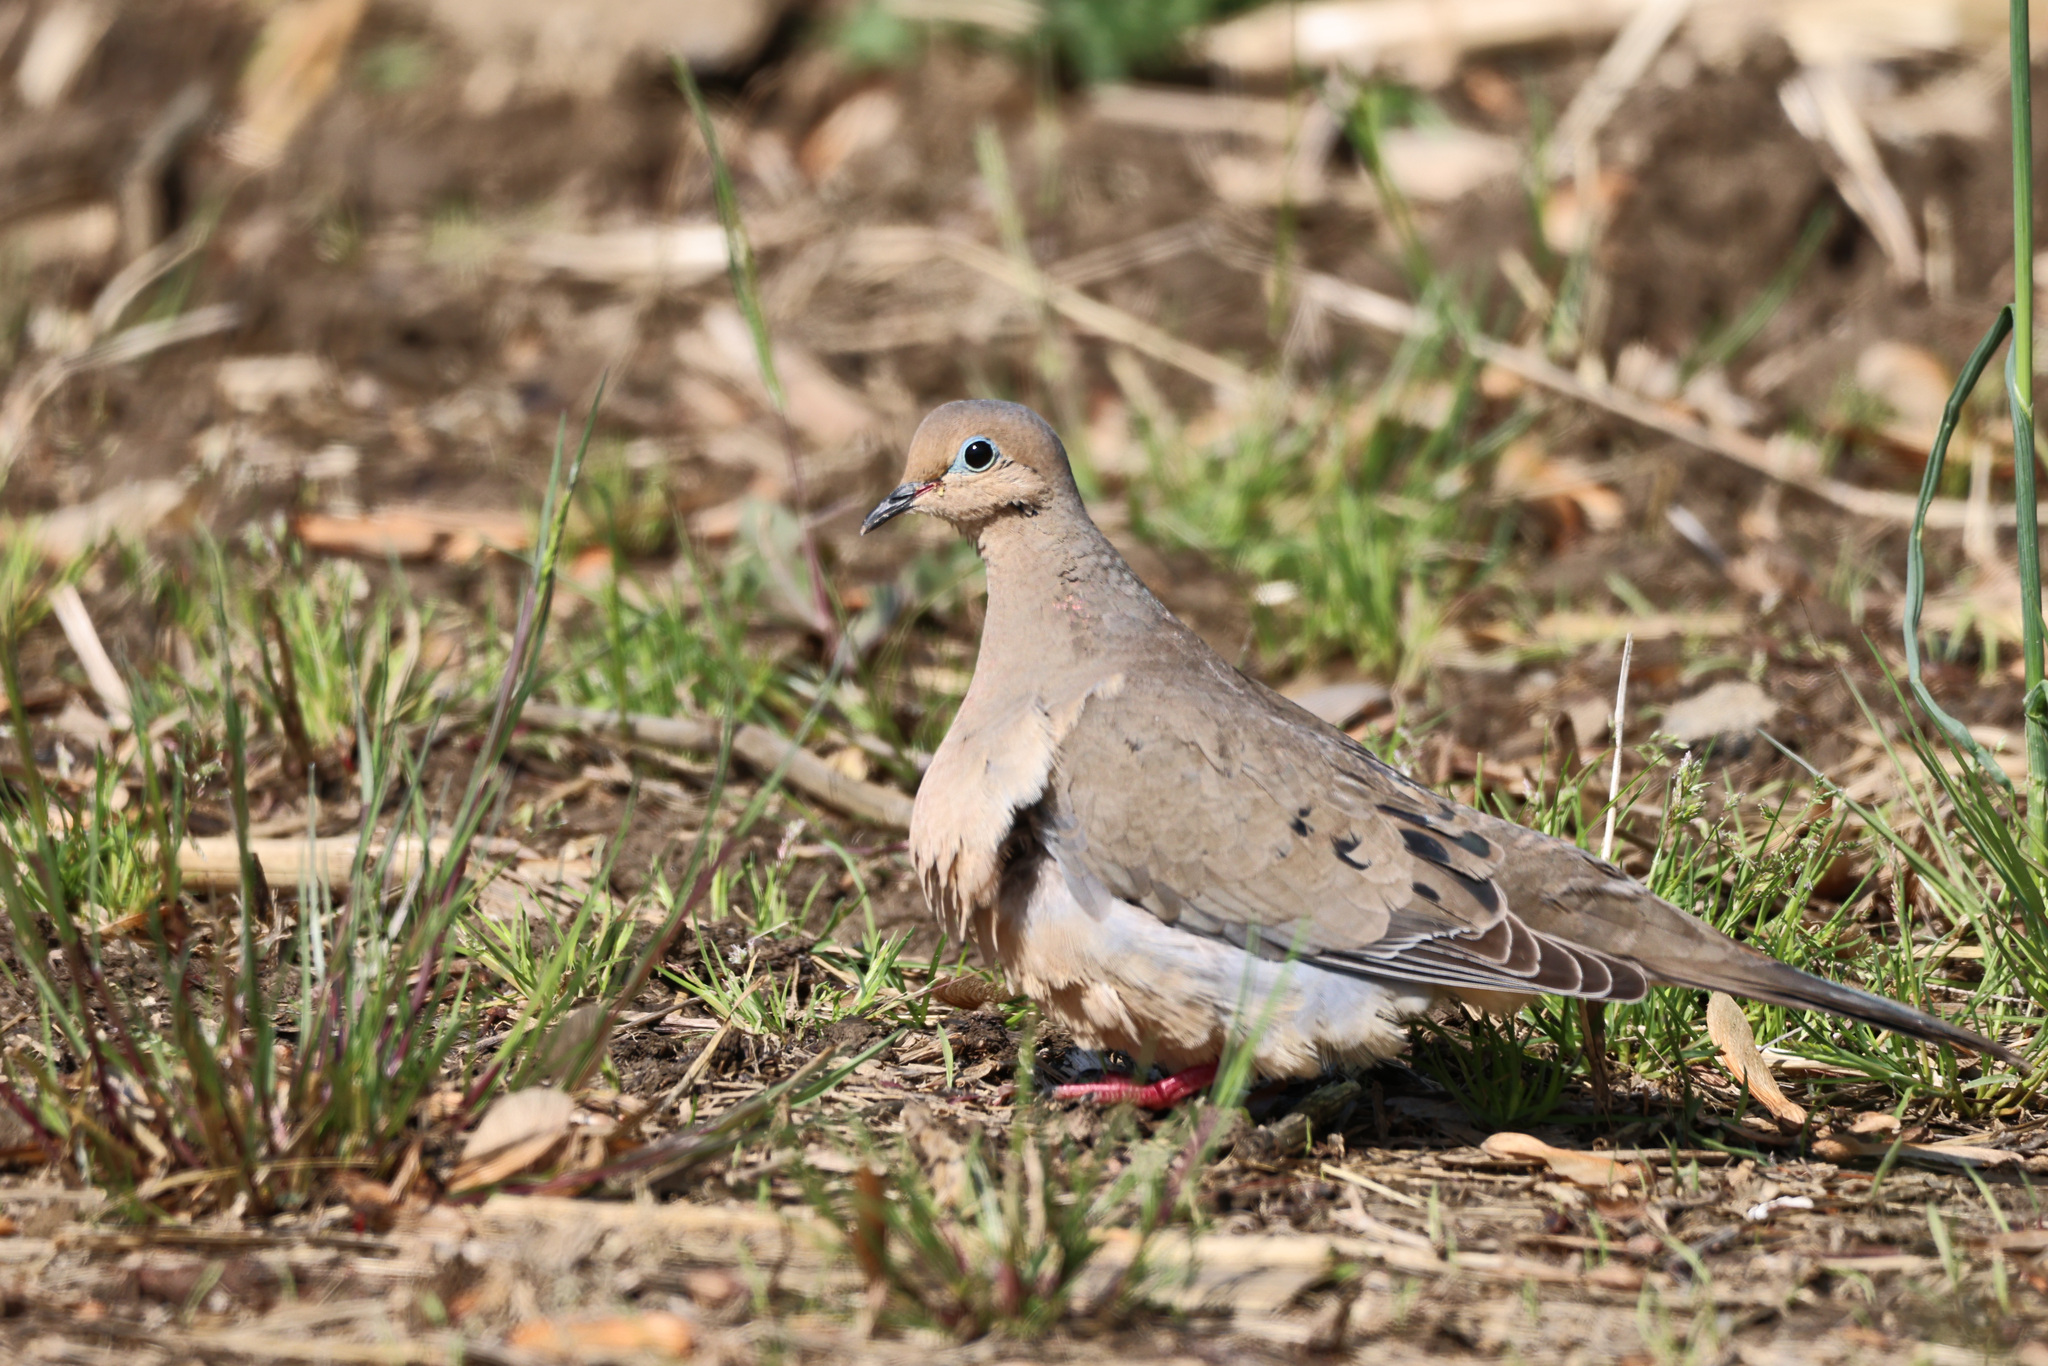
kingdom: Animalia
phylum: Chordata
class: Aves
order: Columbiformes
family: Columbidae
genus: Zenaida
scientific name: Zenaida macroura
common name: Mourning dove
